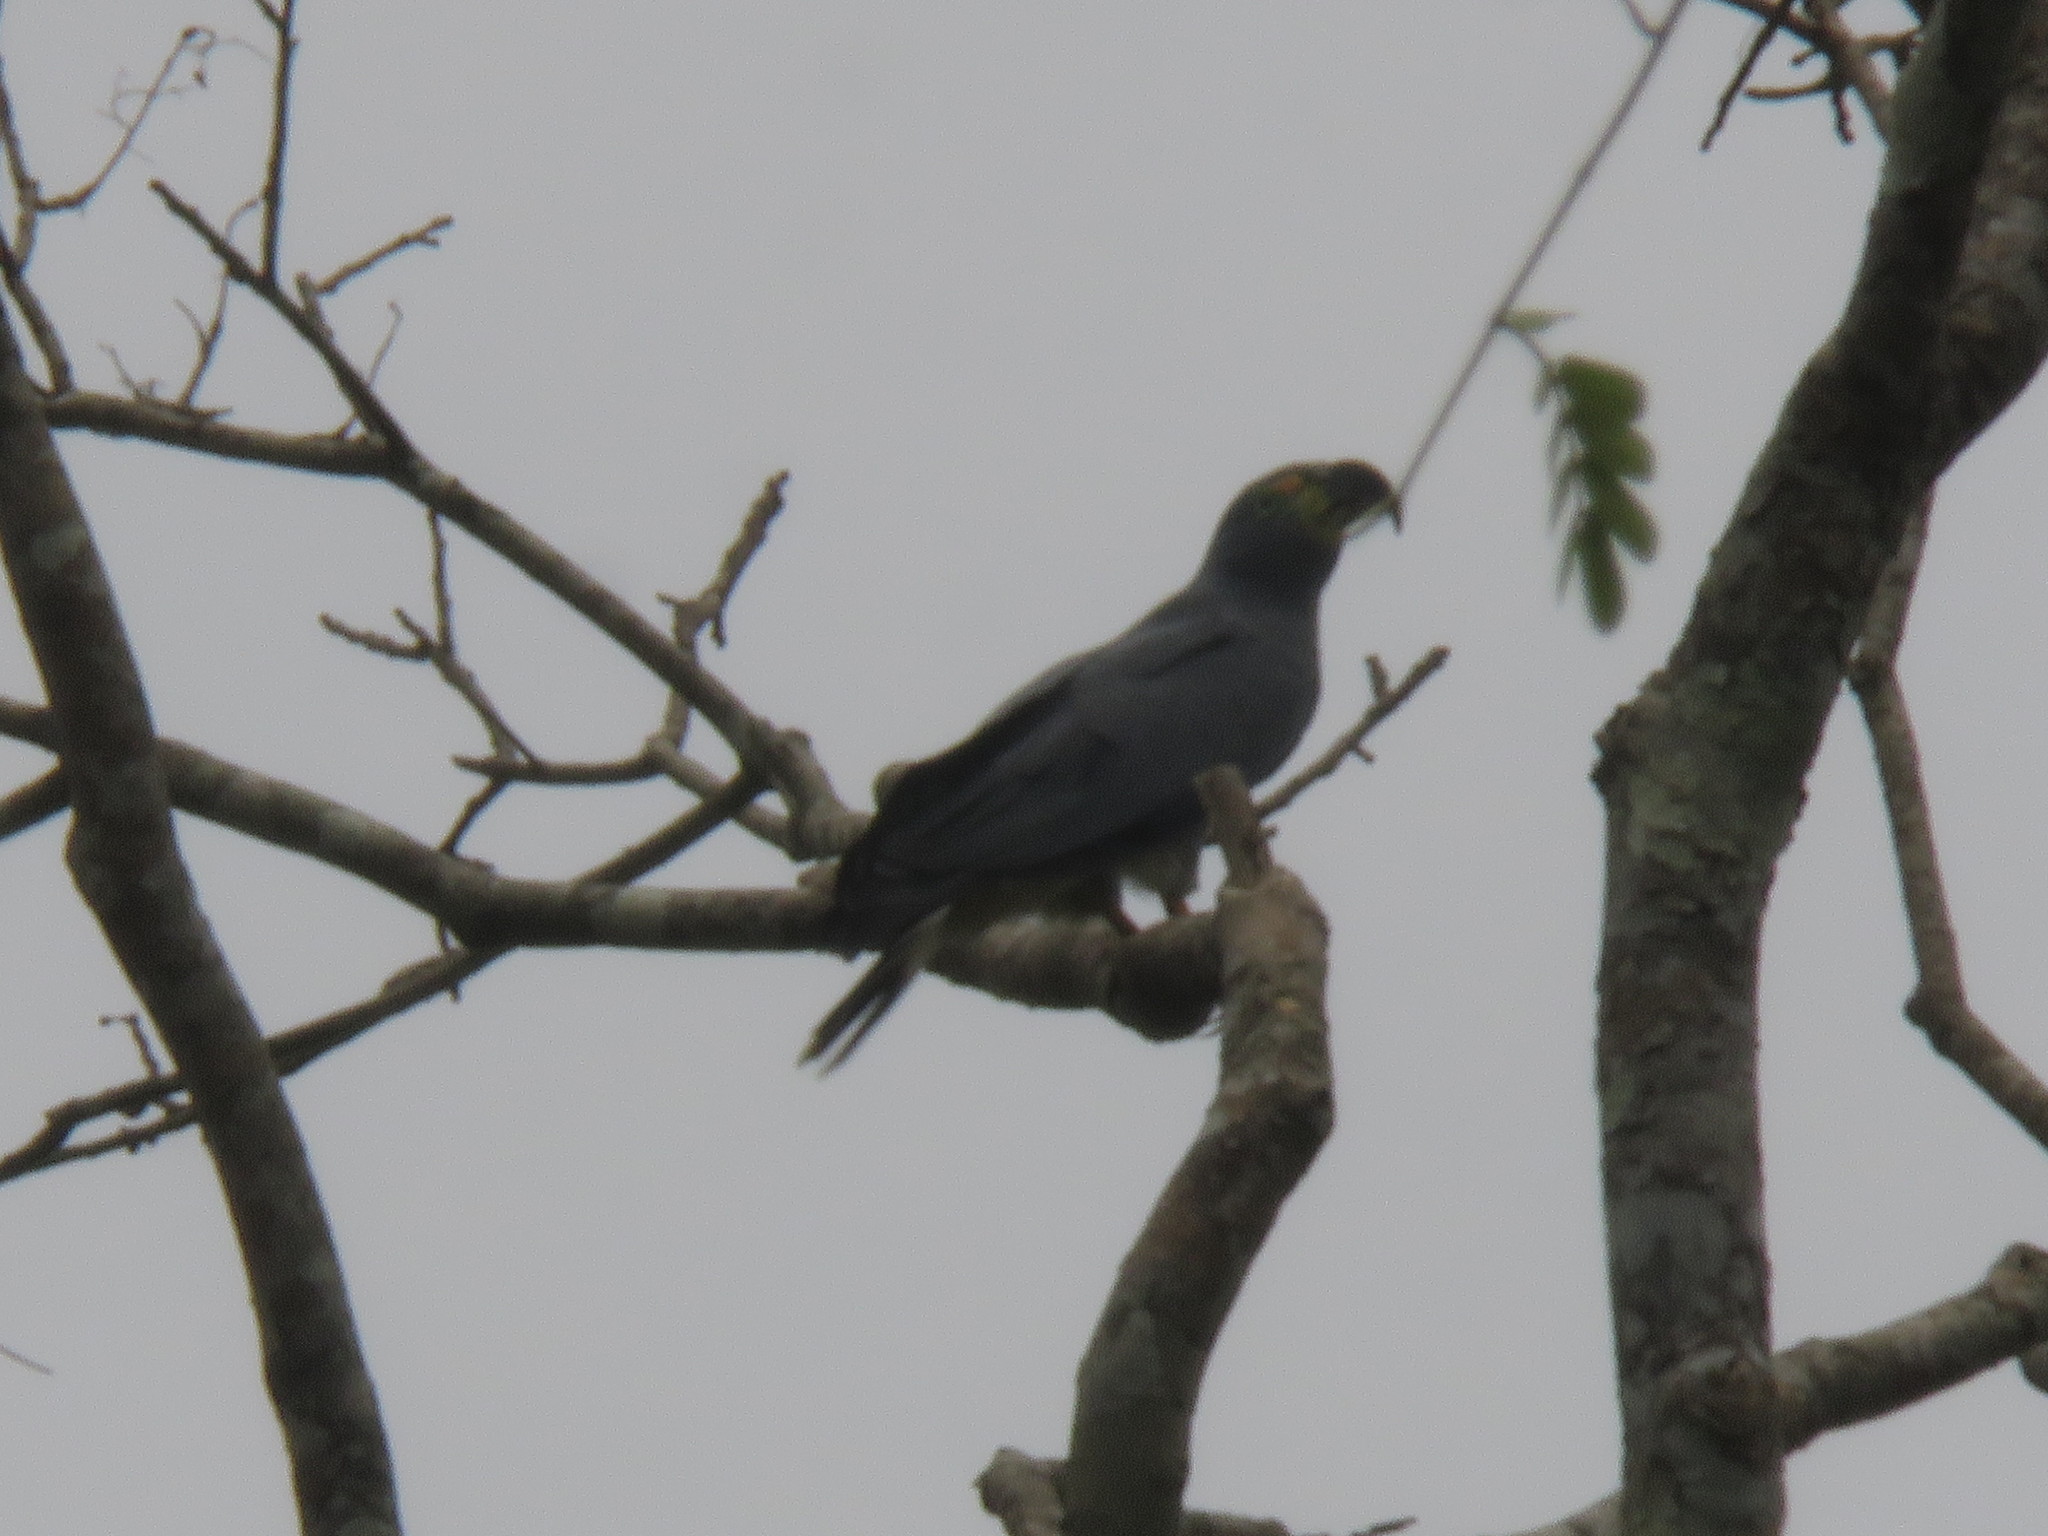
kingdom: Animalia
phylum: Chordata
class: Aves
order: Accipitriformes
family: Accipitridae
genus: Chondrohierax
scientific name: Chondrohierax uncinatus
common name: Hook-billed kite
